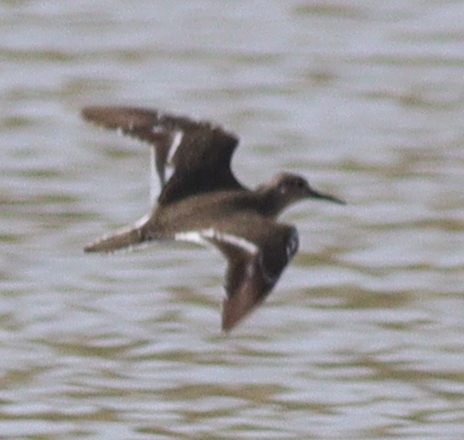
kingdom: Animalia
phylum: Chordata
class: Aves
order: Charadriiformes
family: Scolopacidae
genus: Actitis
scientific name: Actitis hypoleucos
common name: Common sandpiper
